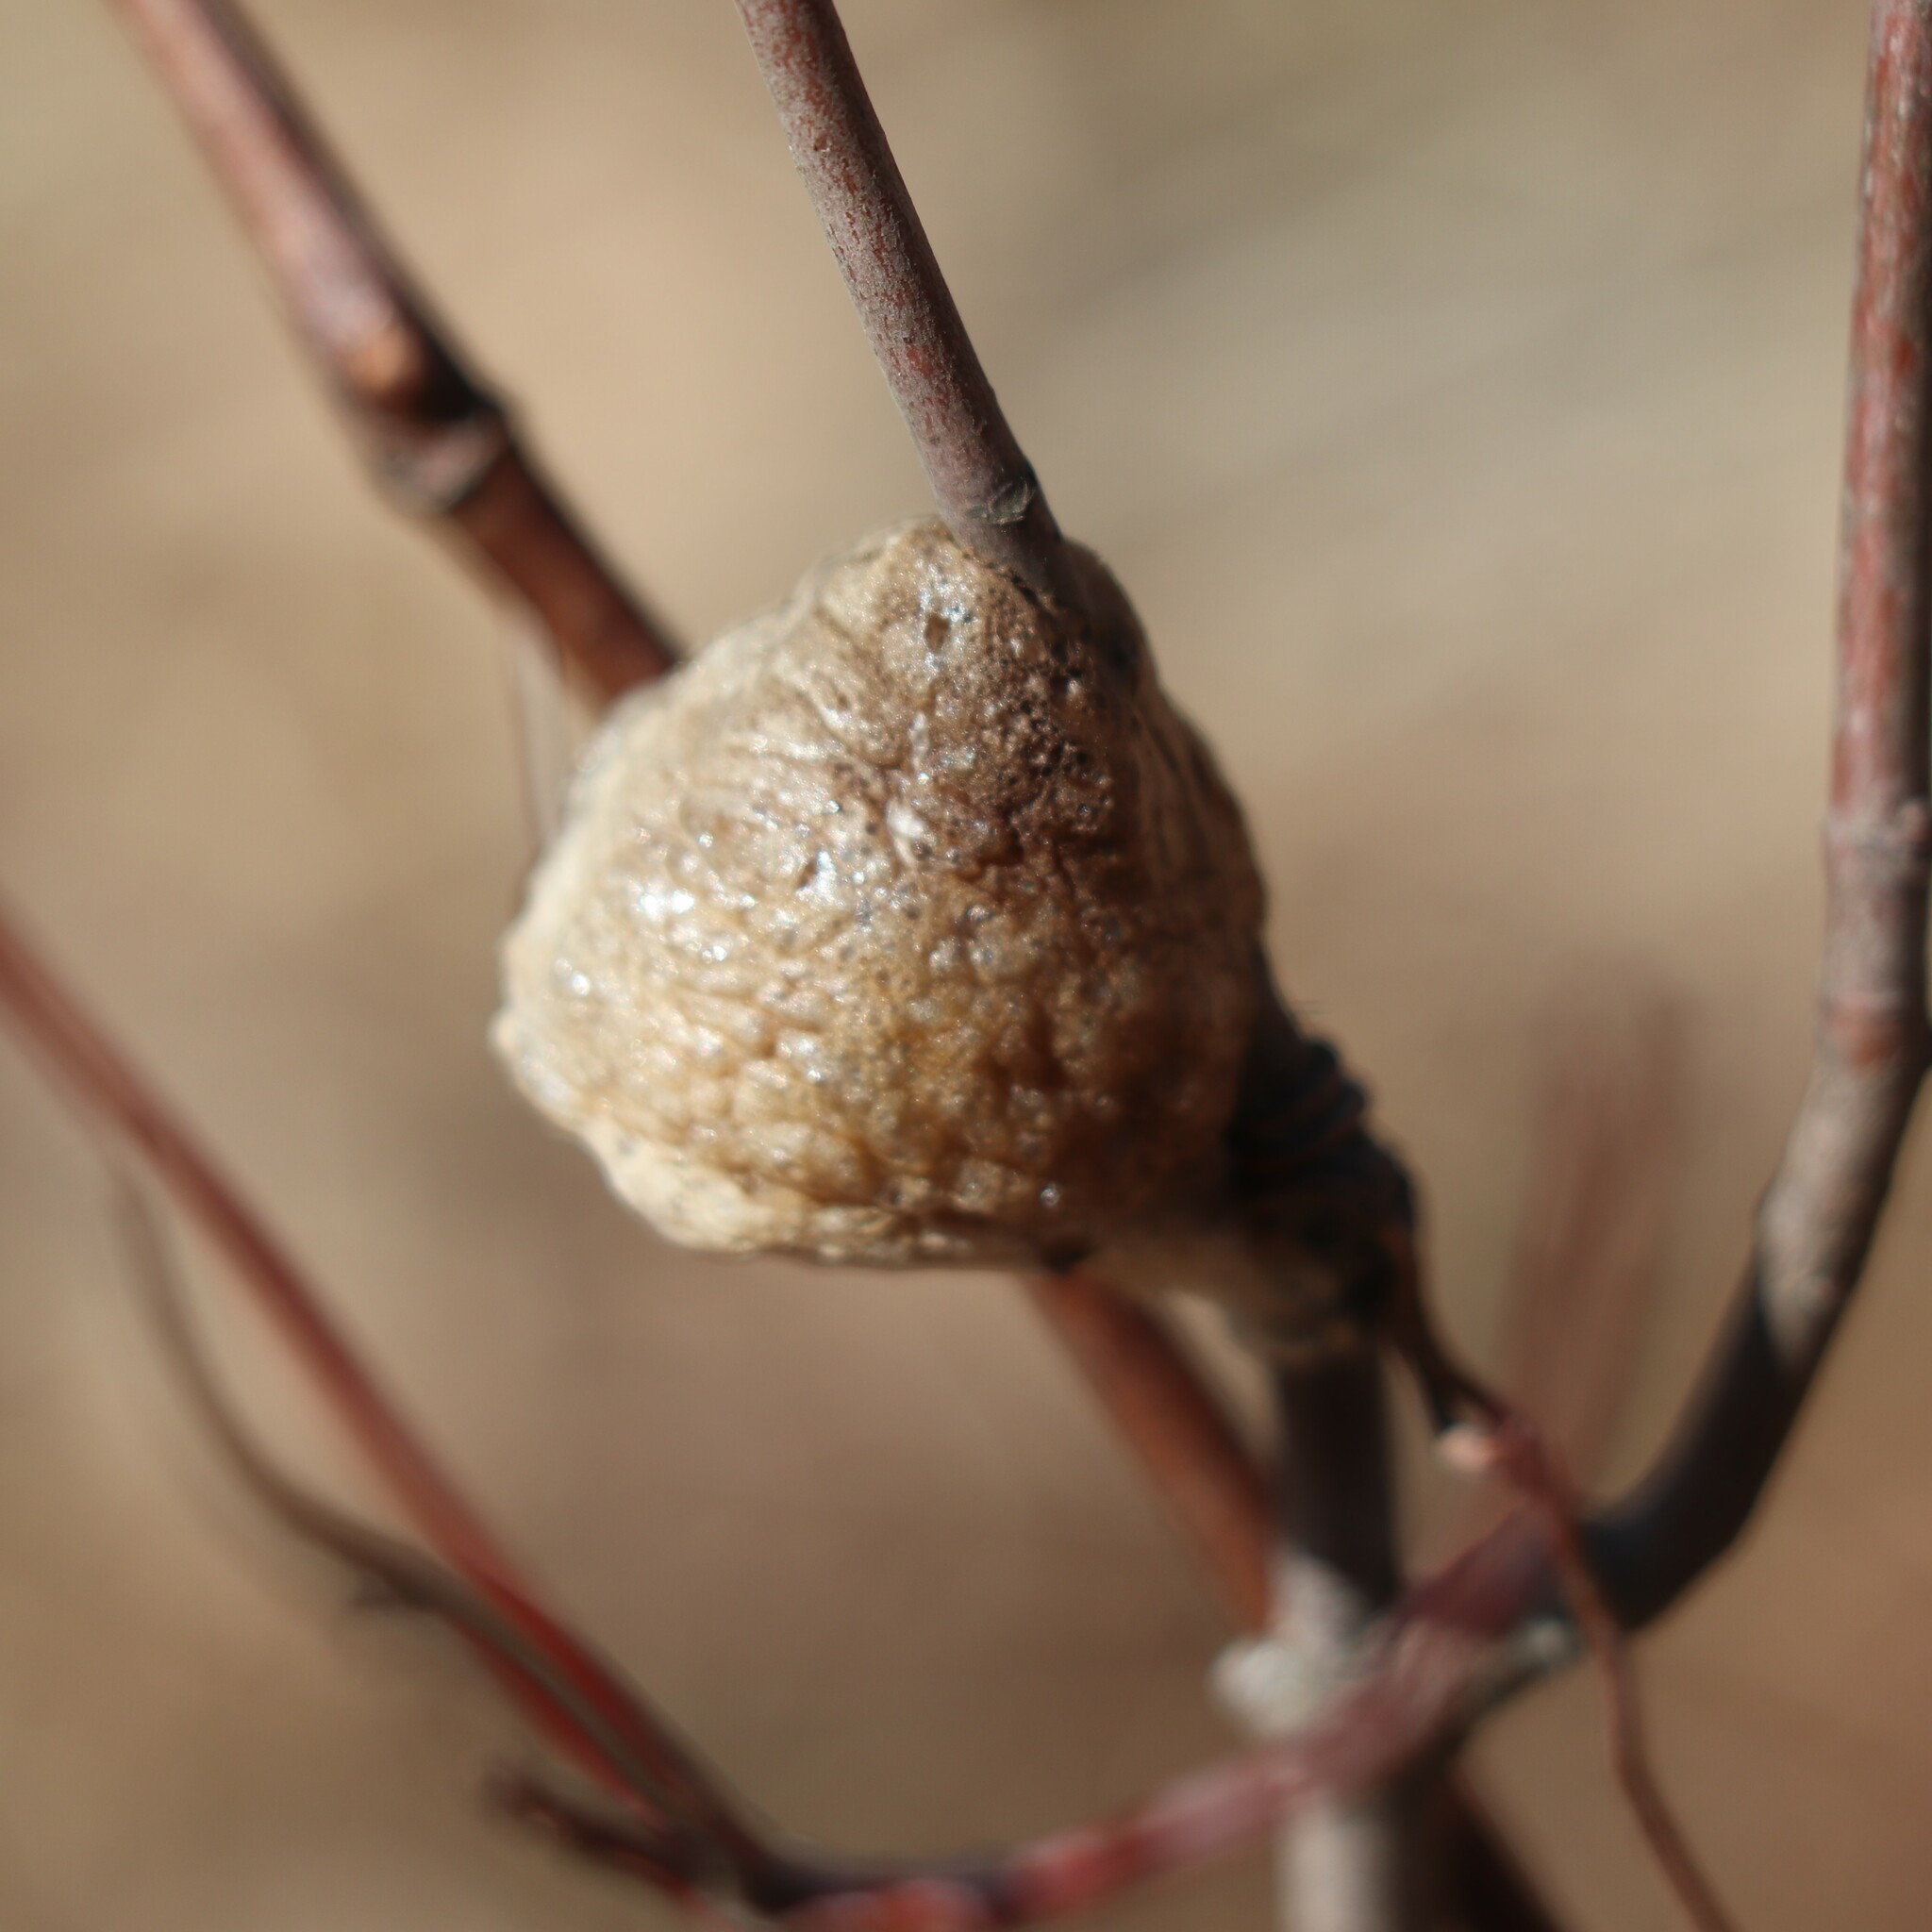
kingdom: Animalia
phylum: Arthropoda
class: Insecta
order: Mantodea
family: Mantidae
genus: Tenodera
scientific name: Tenodera sinensis
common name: Chinese mantis
